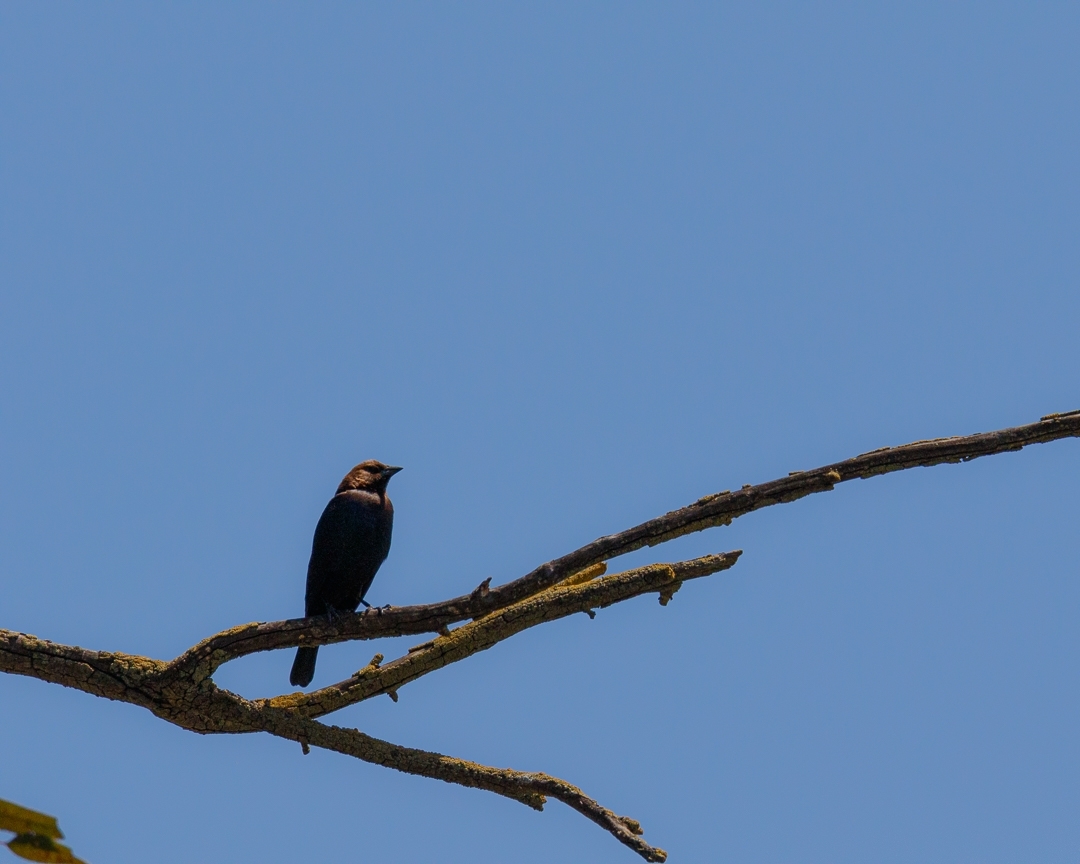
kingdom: Animalia
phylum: Chordata
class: Aves
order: Passeriformes
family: Icteridae
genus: Molothrus
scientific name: Molothrus ater
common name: Brown-headed cowbird
